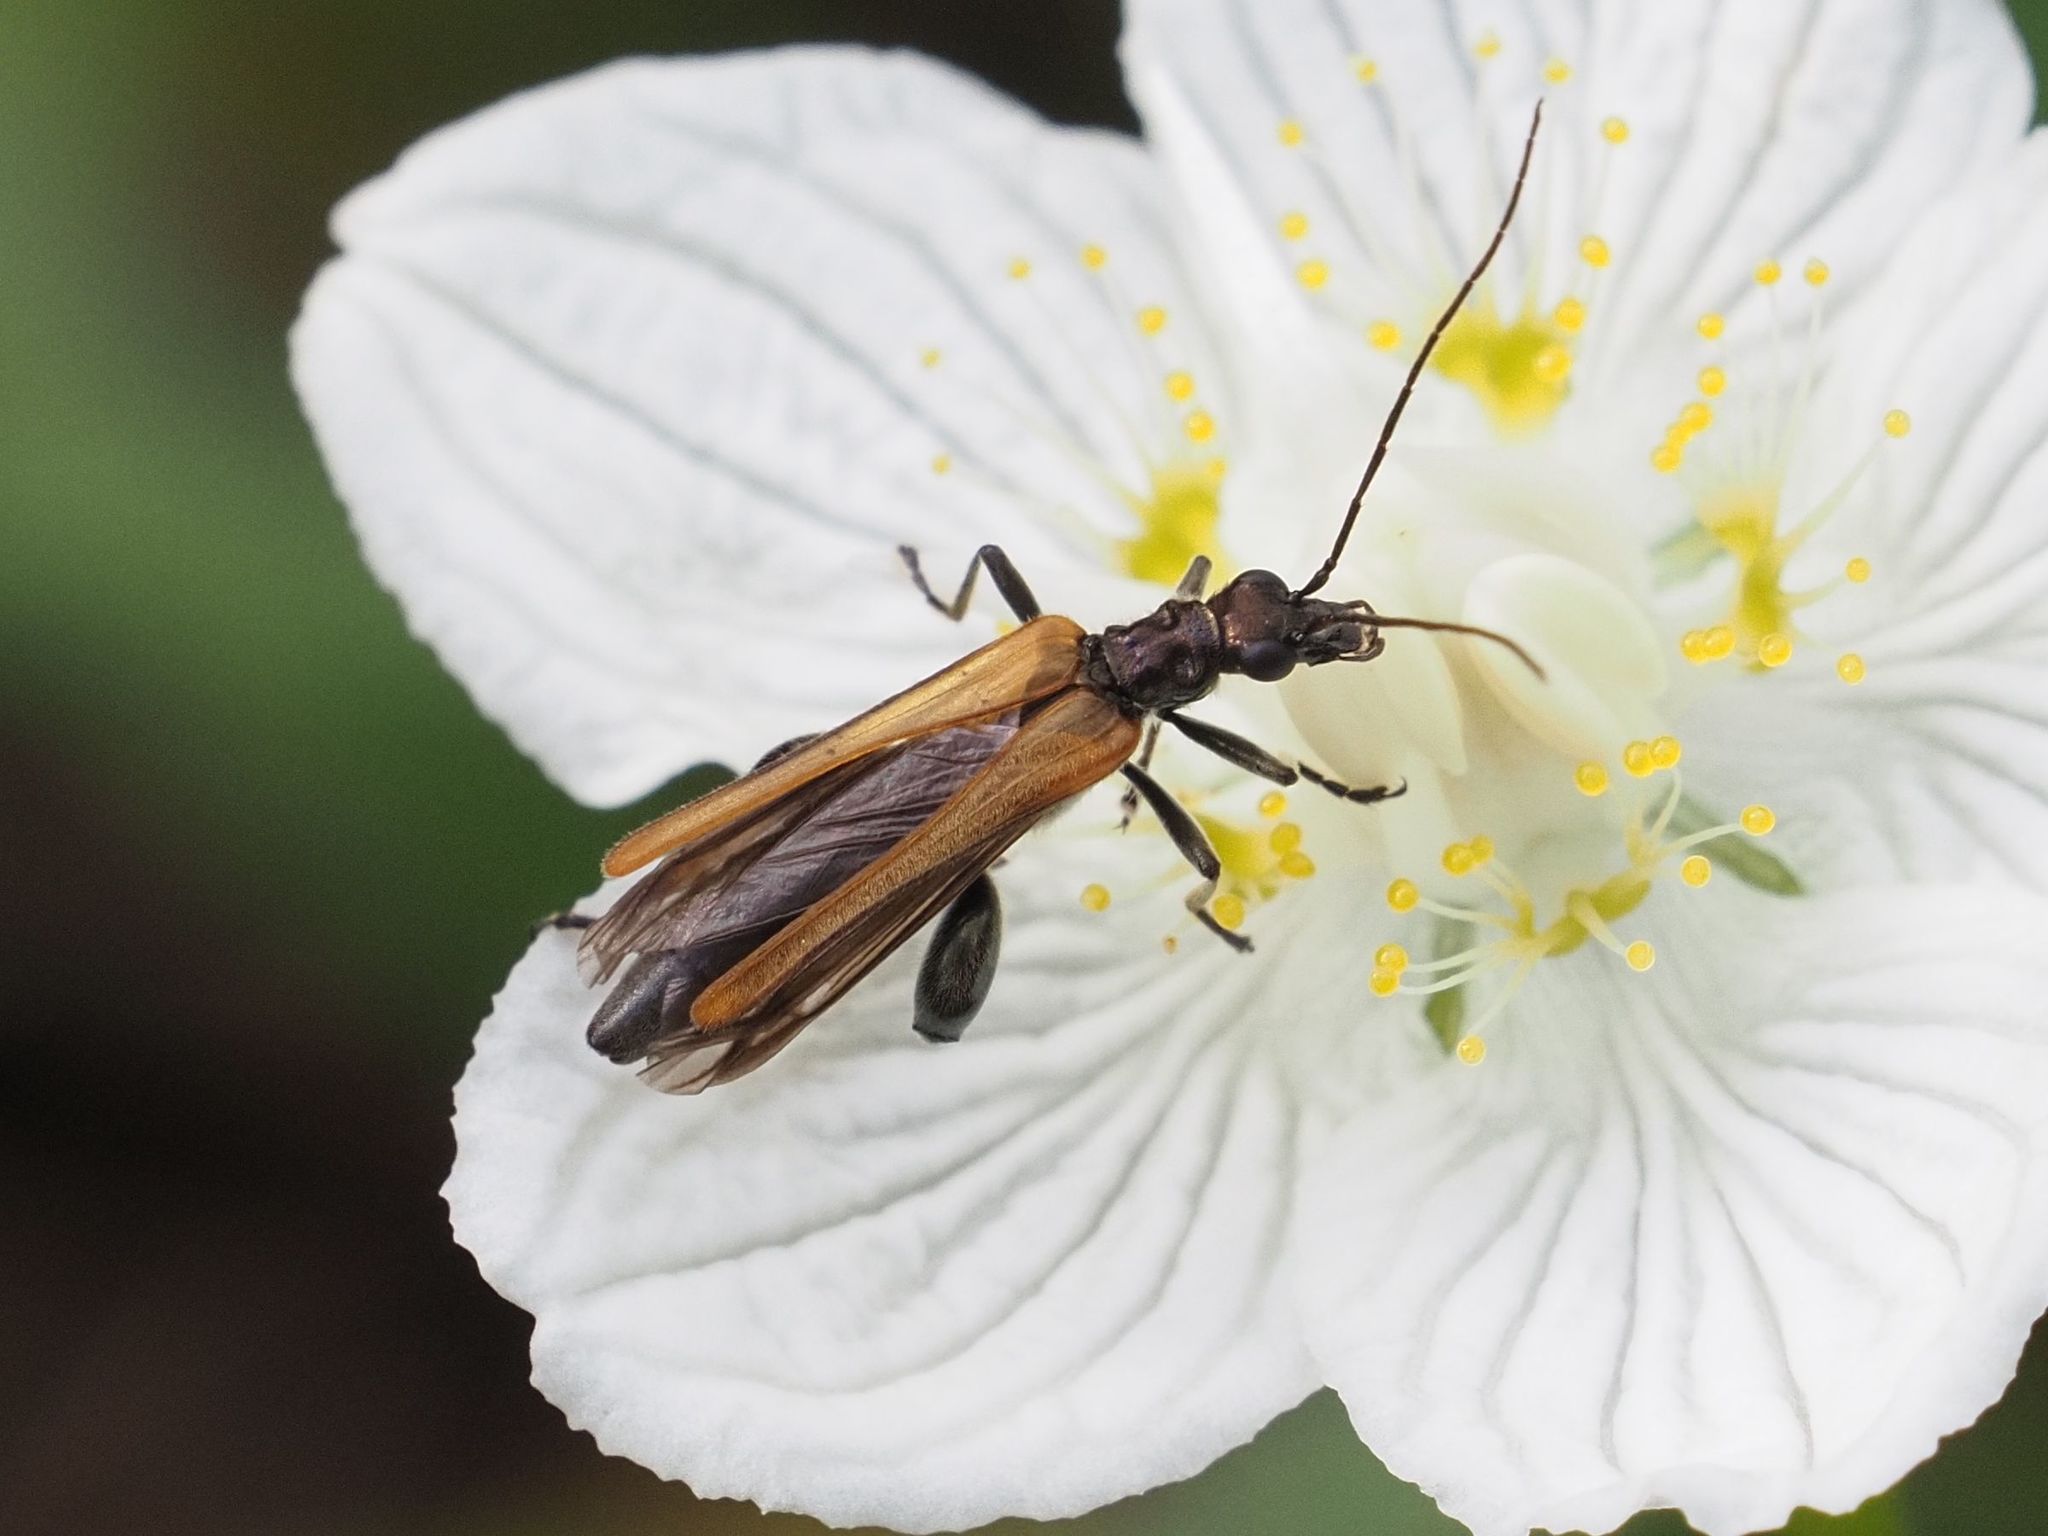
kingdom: Animalia
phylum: Arthropoda
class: Insecta
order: Coleoptera
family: Oedemeridae
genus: Oedemera
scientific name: Oedemera femorata
